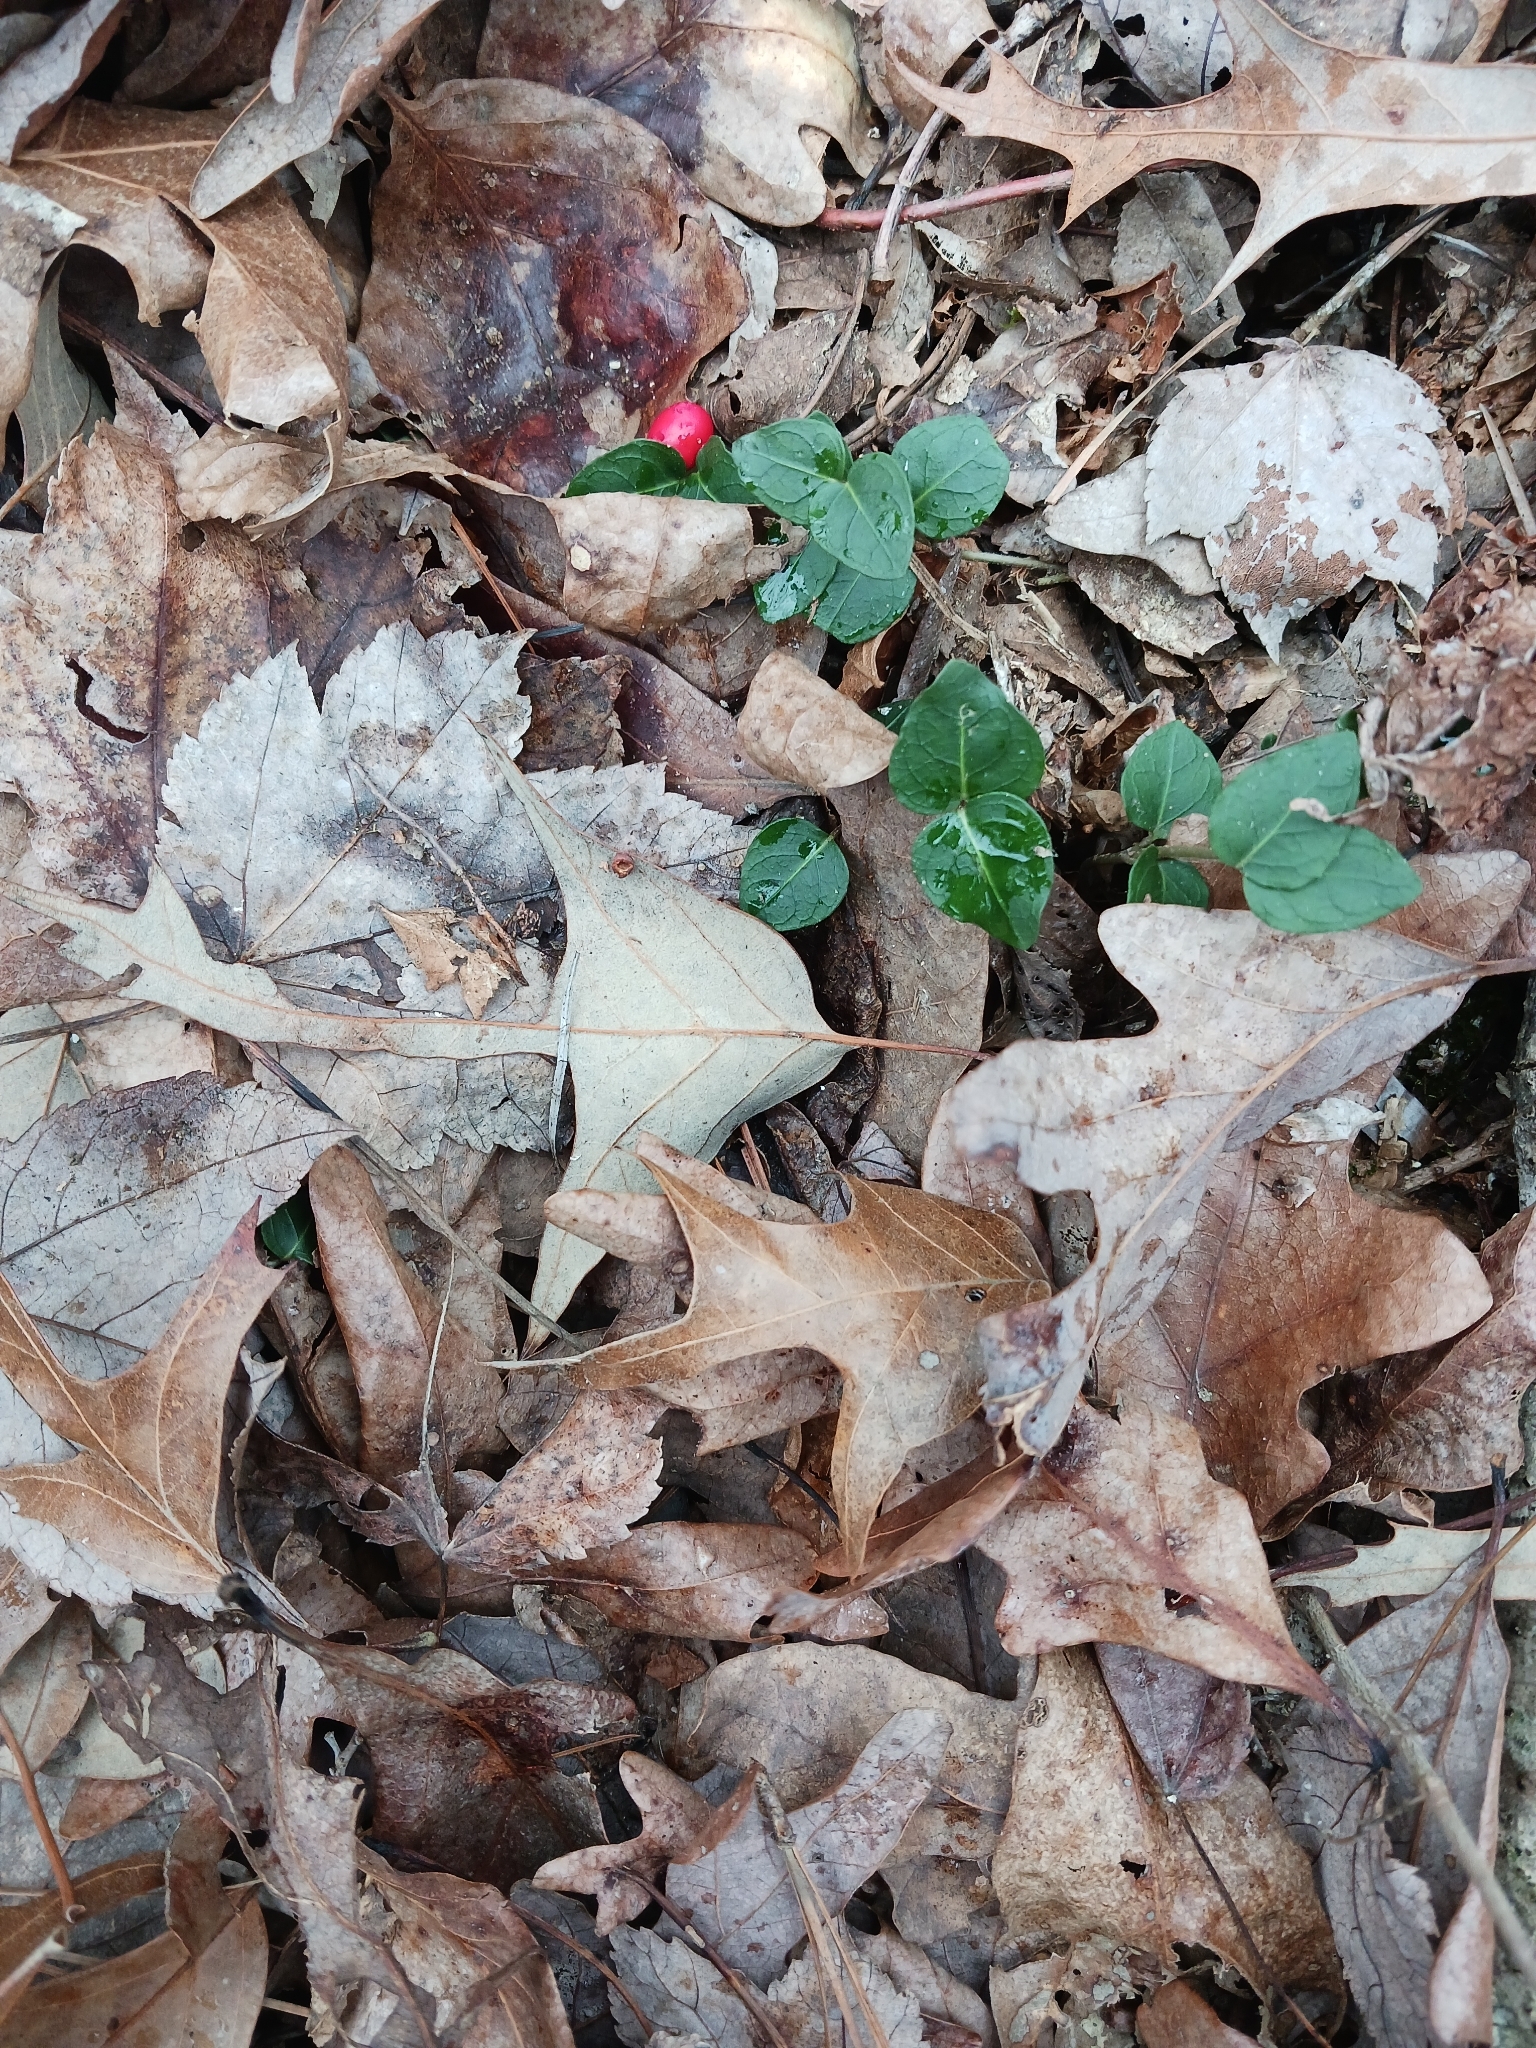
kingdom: Plantae
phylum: Tracheophyta
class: Magnoliopsida
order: Gentianales
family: Rubiaceae
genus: Mitchella
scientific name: Mitchella repens
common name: Partridge-berry
